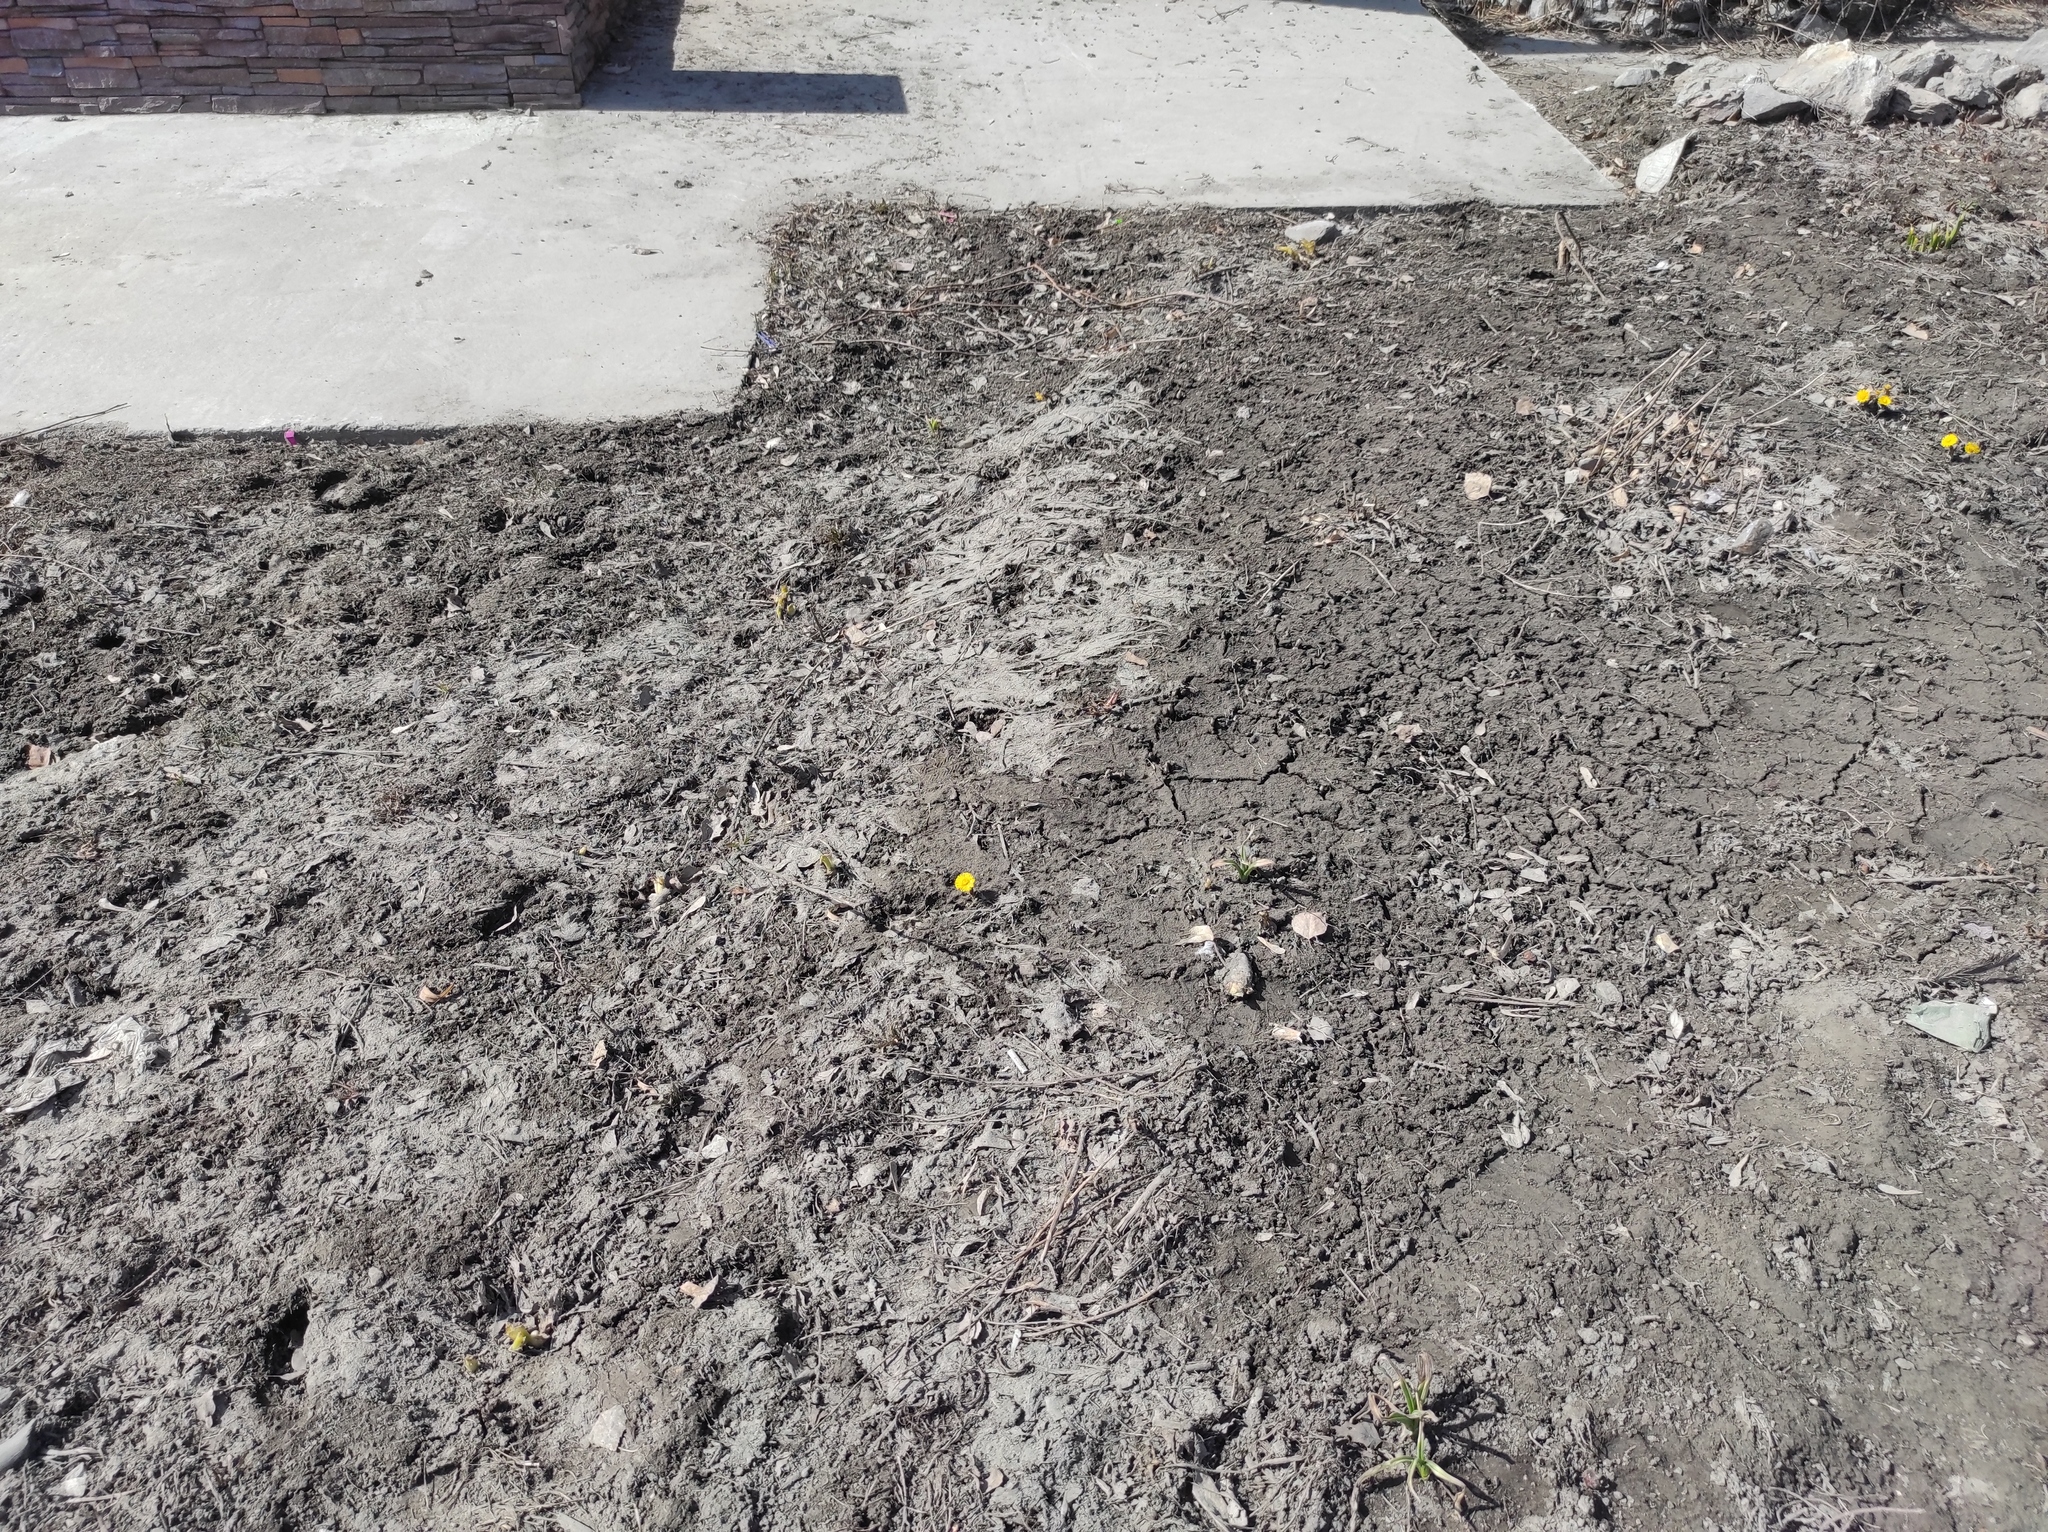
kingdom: Plantae
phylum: Tracheophyta
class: Magnoliopsida
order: Asterales
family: Asteraceae
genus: Tussilago
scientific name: Tussilago farfara
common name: Coltsfoot
